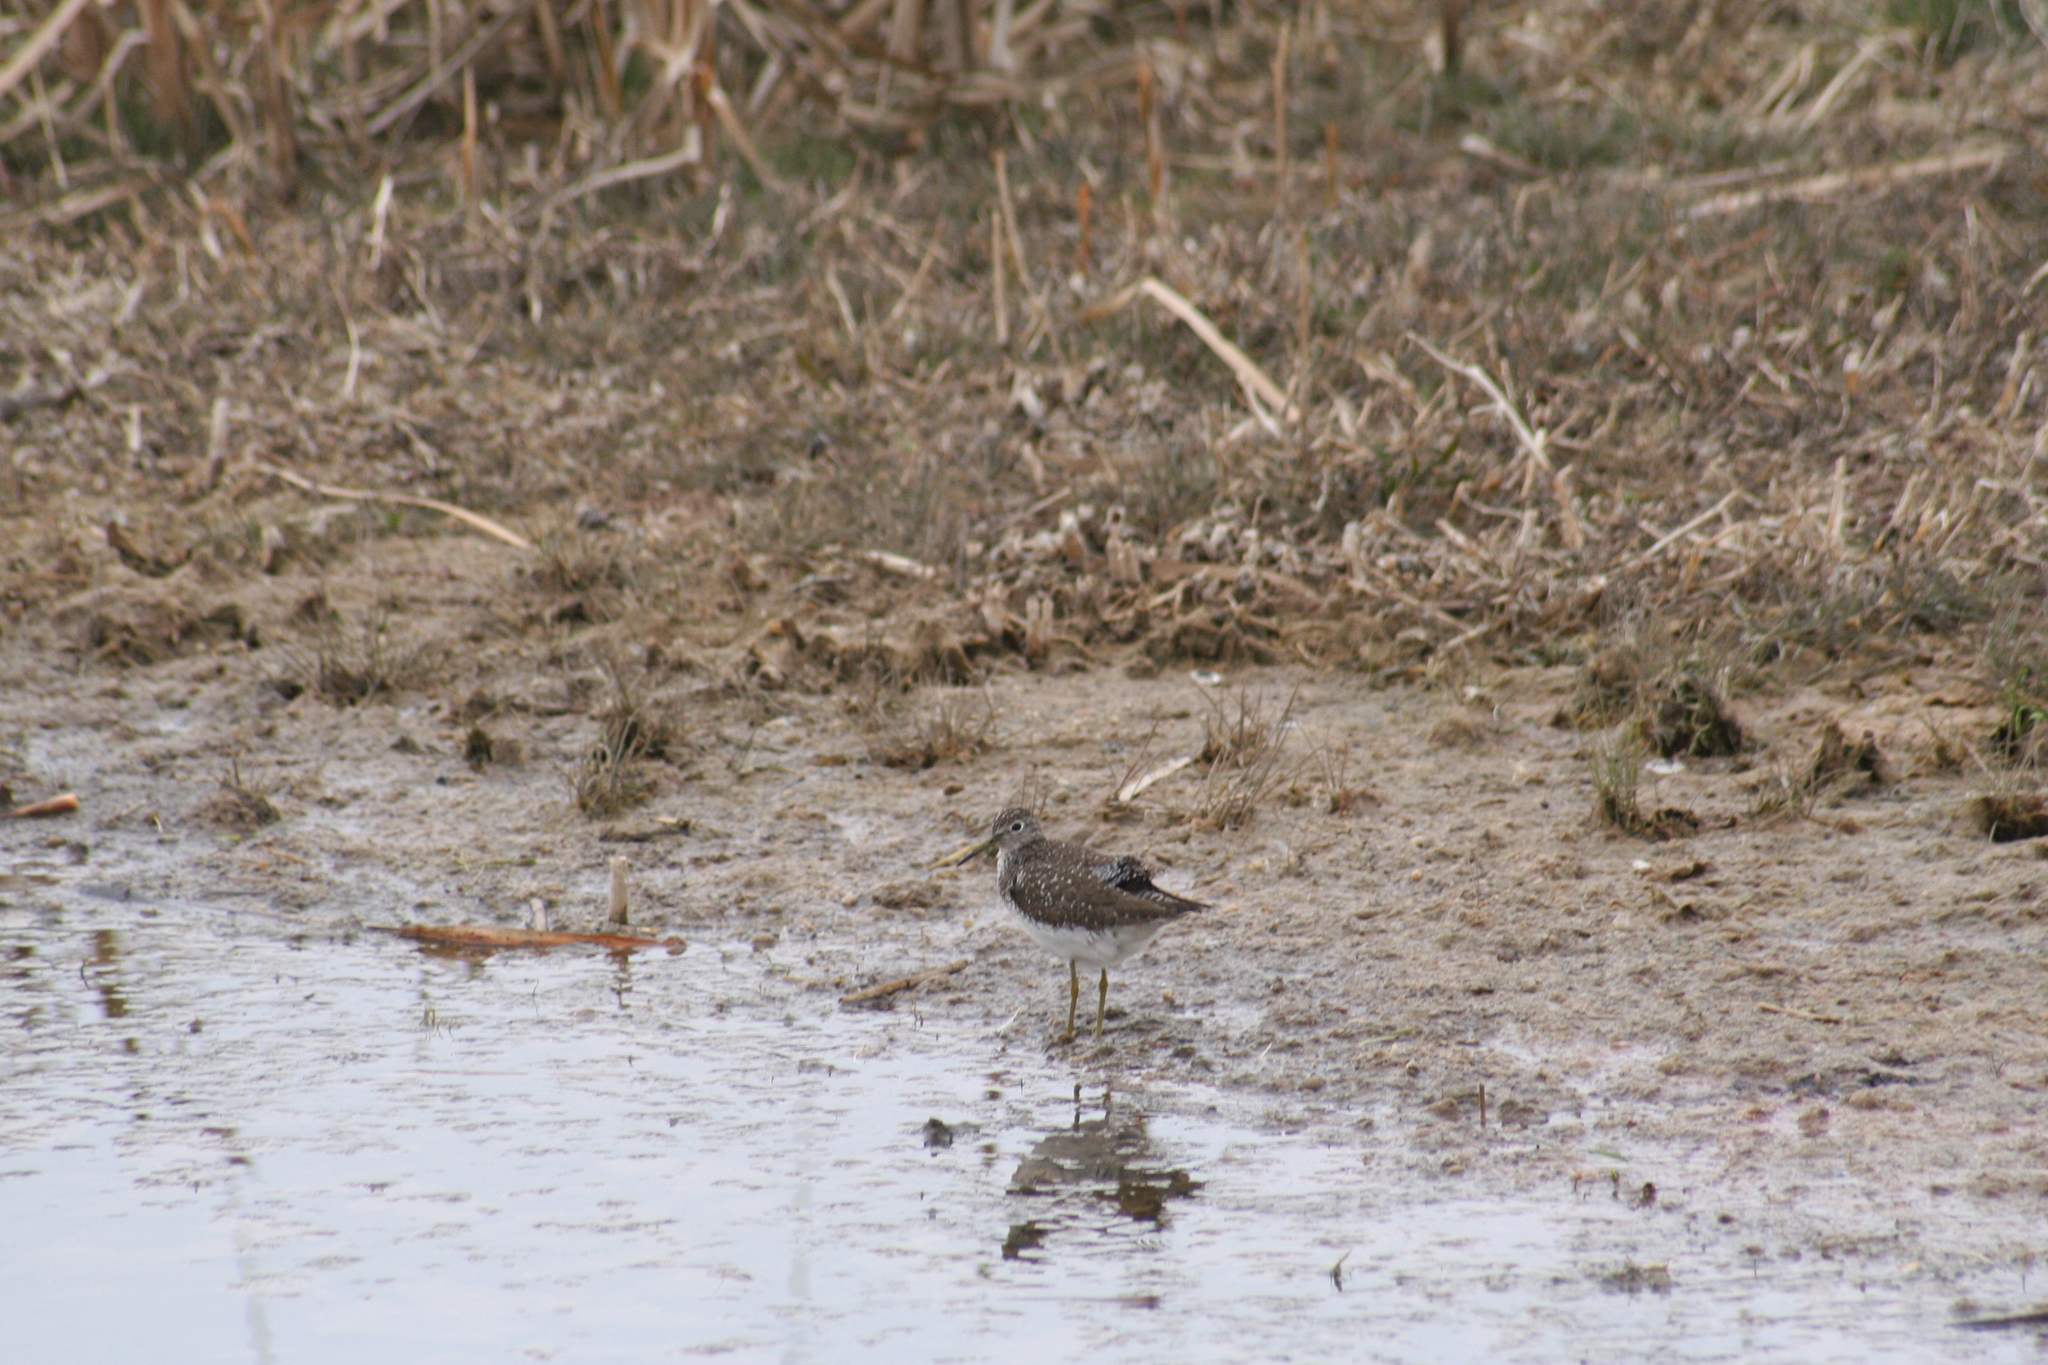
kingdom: Animalia
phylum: Chordata
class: Aves
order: Charadriiformes
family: Scolopacidae
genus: Tringa
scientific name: Tringa solitaria
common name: Solitary sandpiper
